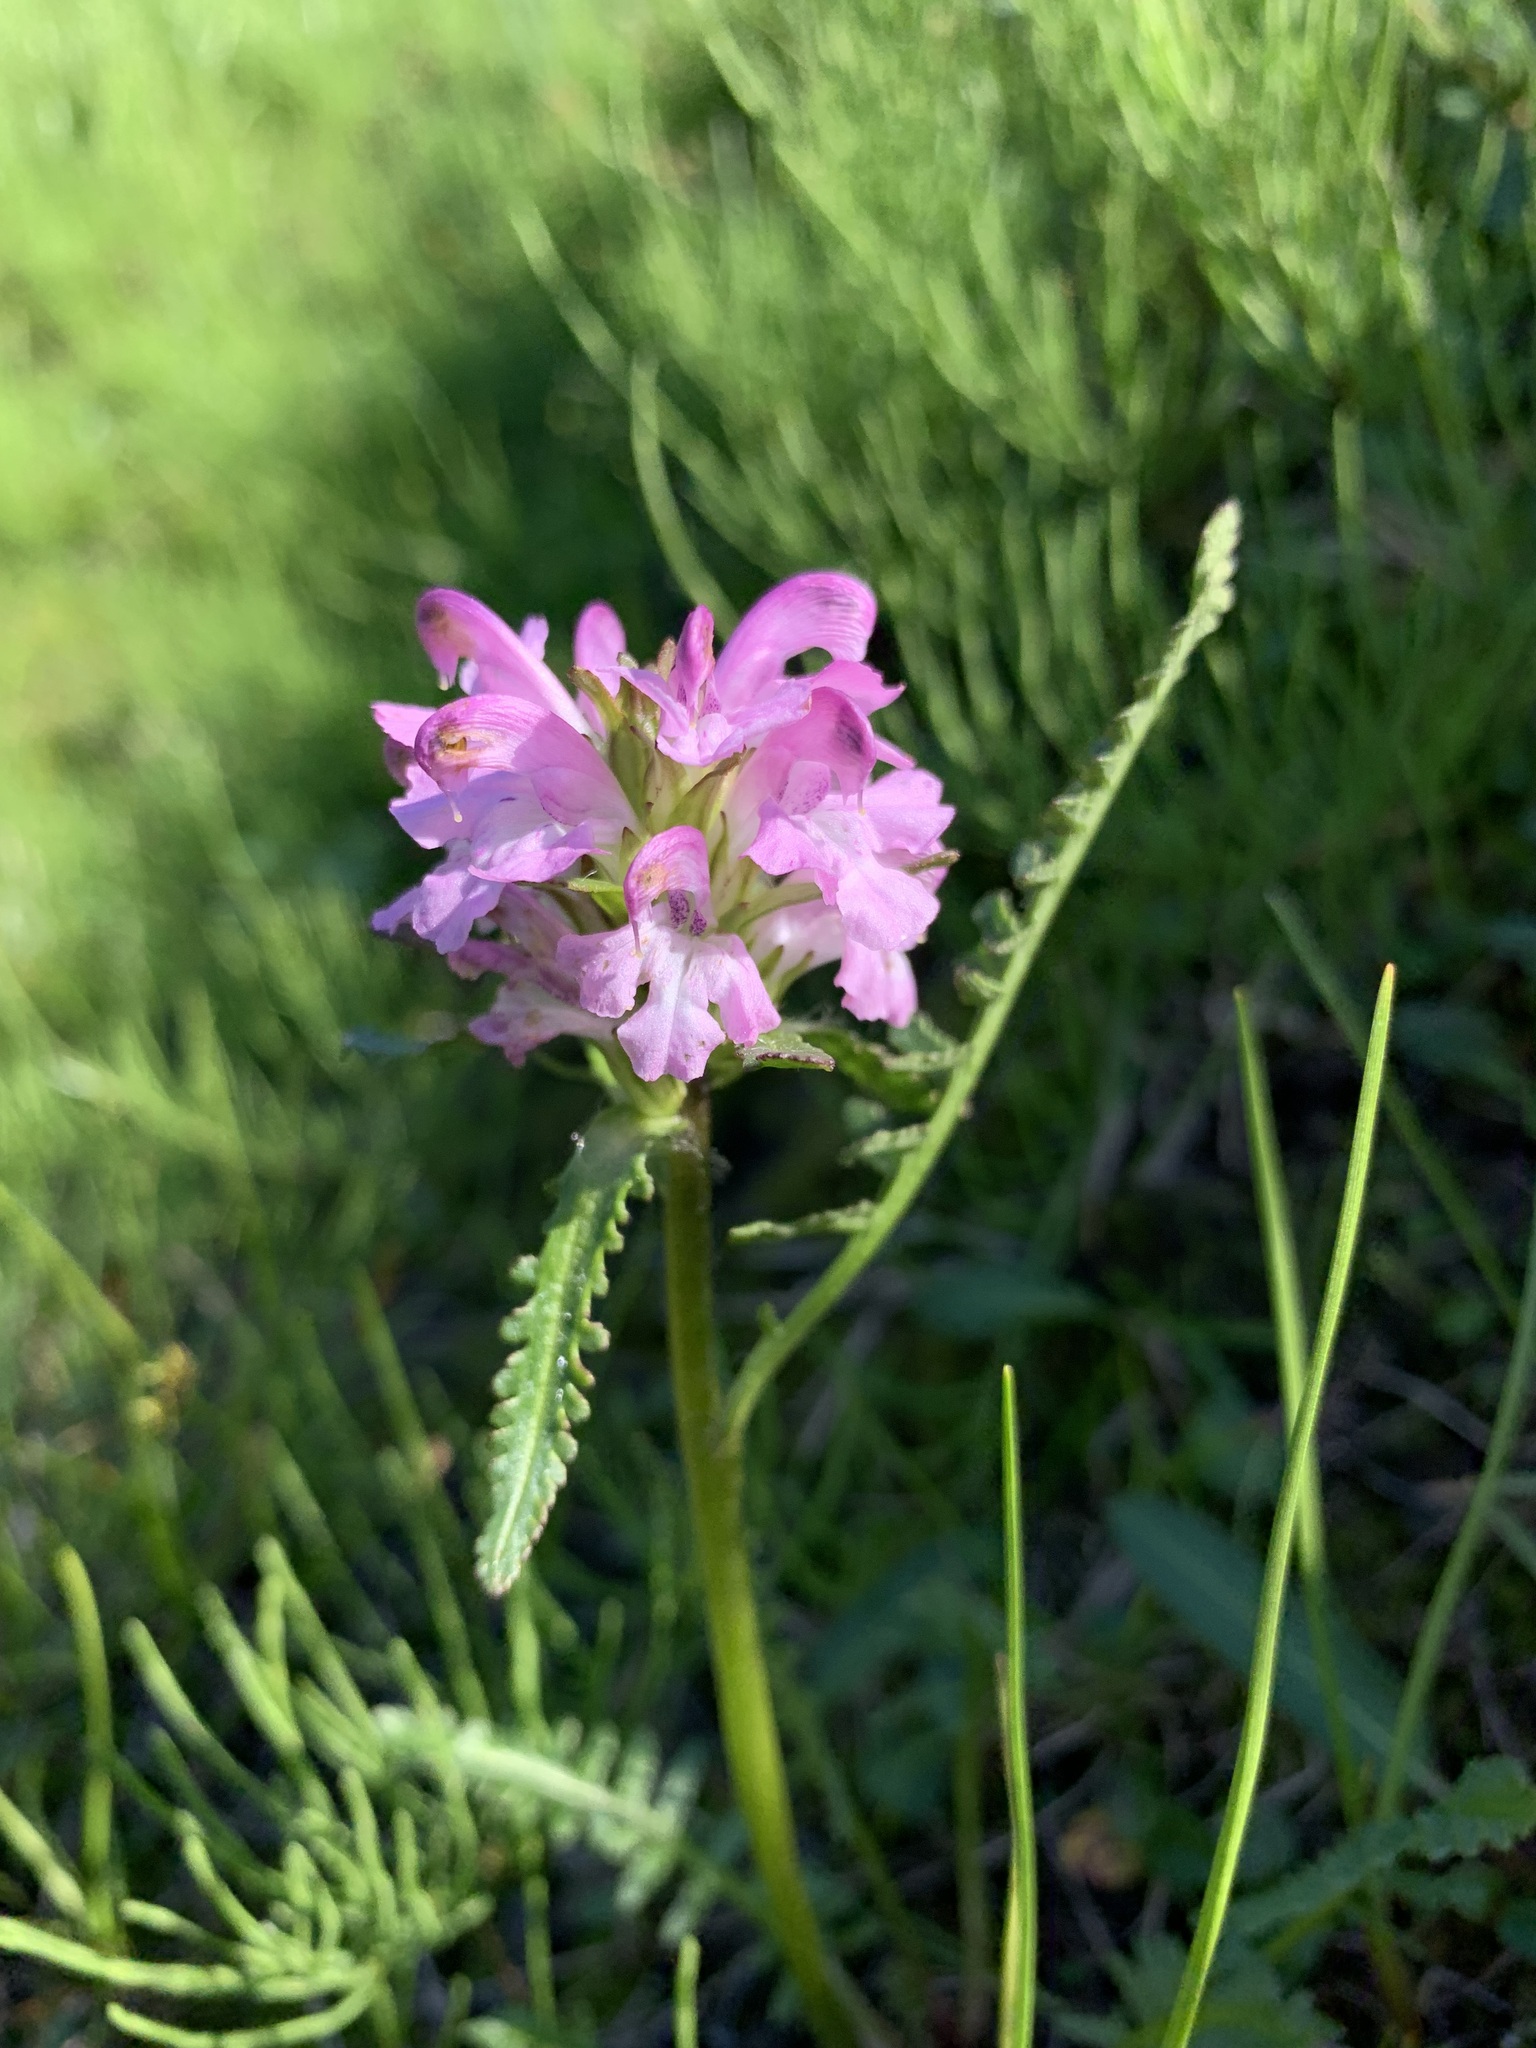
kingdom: Plantae
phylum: Tracheophyta
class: Magnoliopsida
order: Lamiales
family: Orobanchaceae
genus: Pedicularis
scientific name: Pedicularis sudetica
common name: Sudeten lousewort
